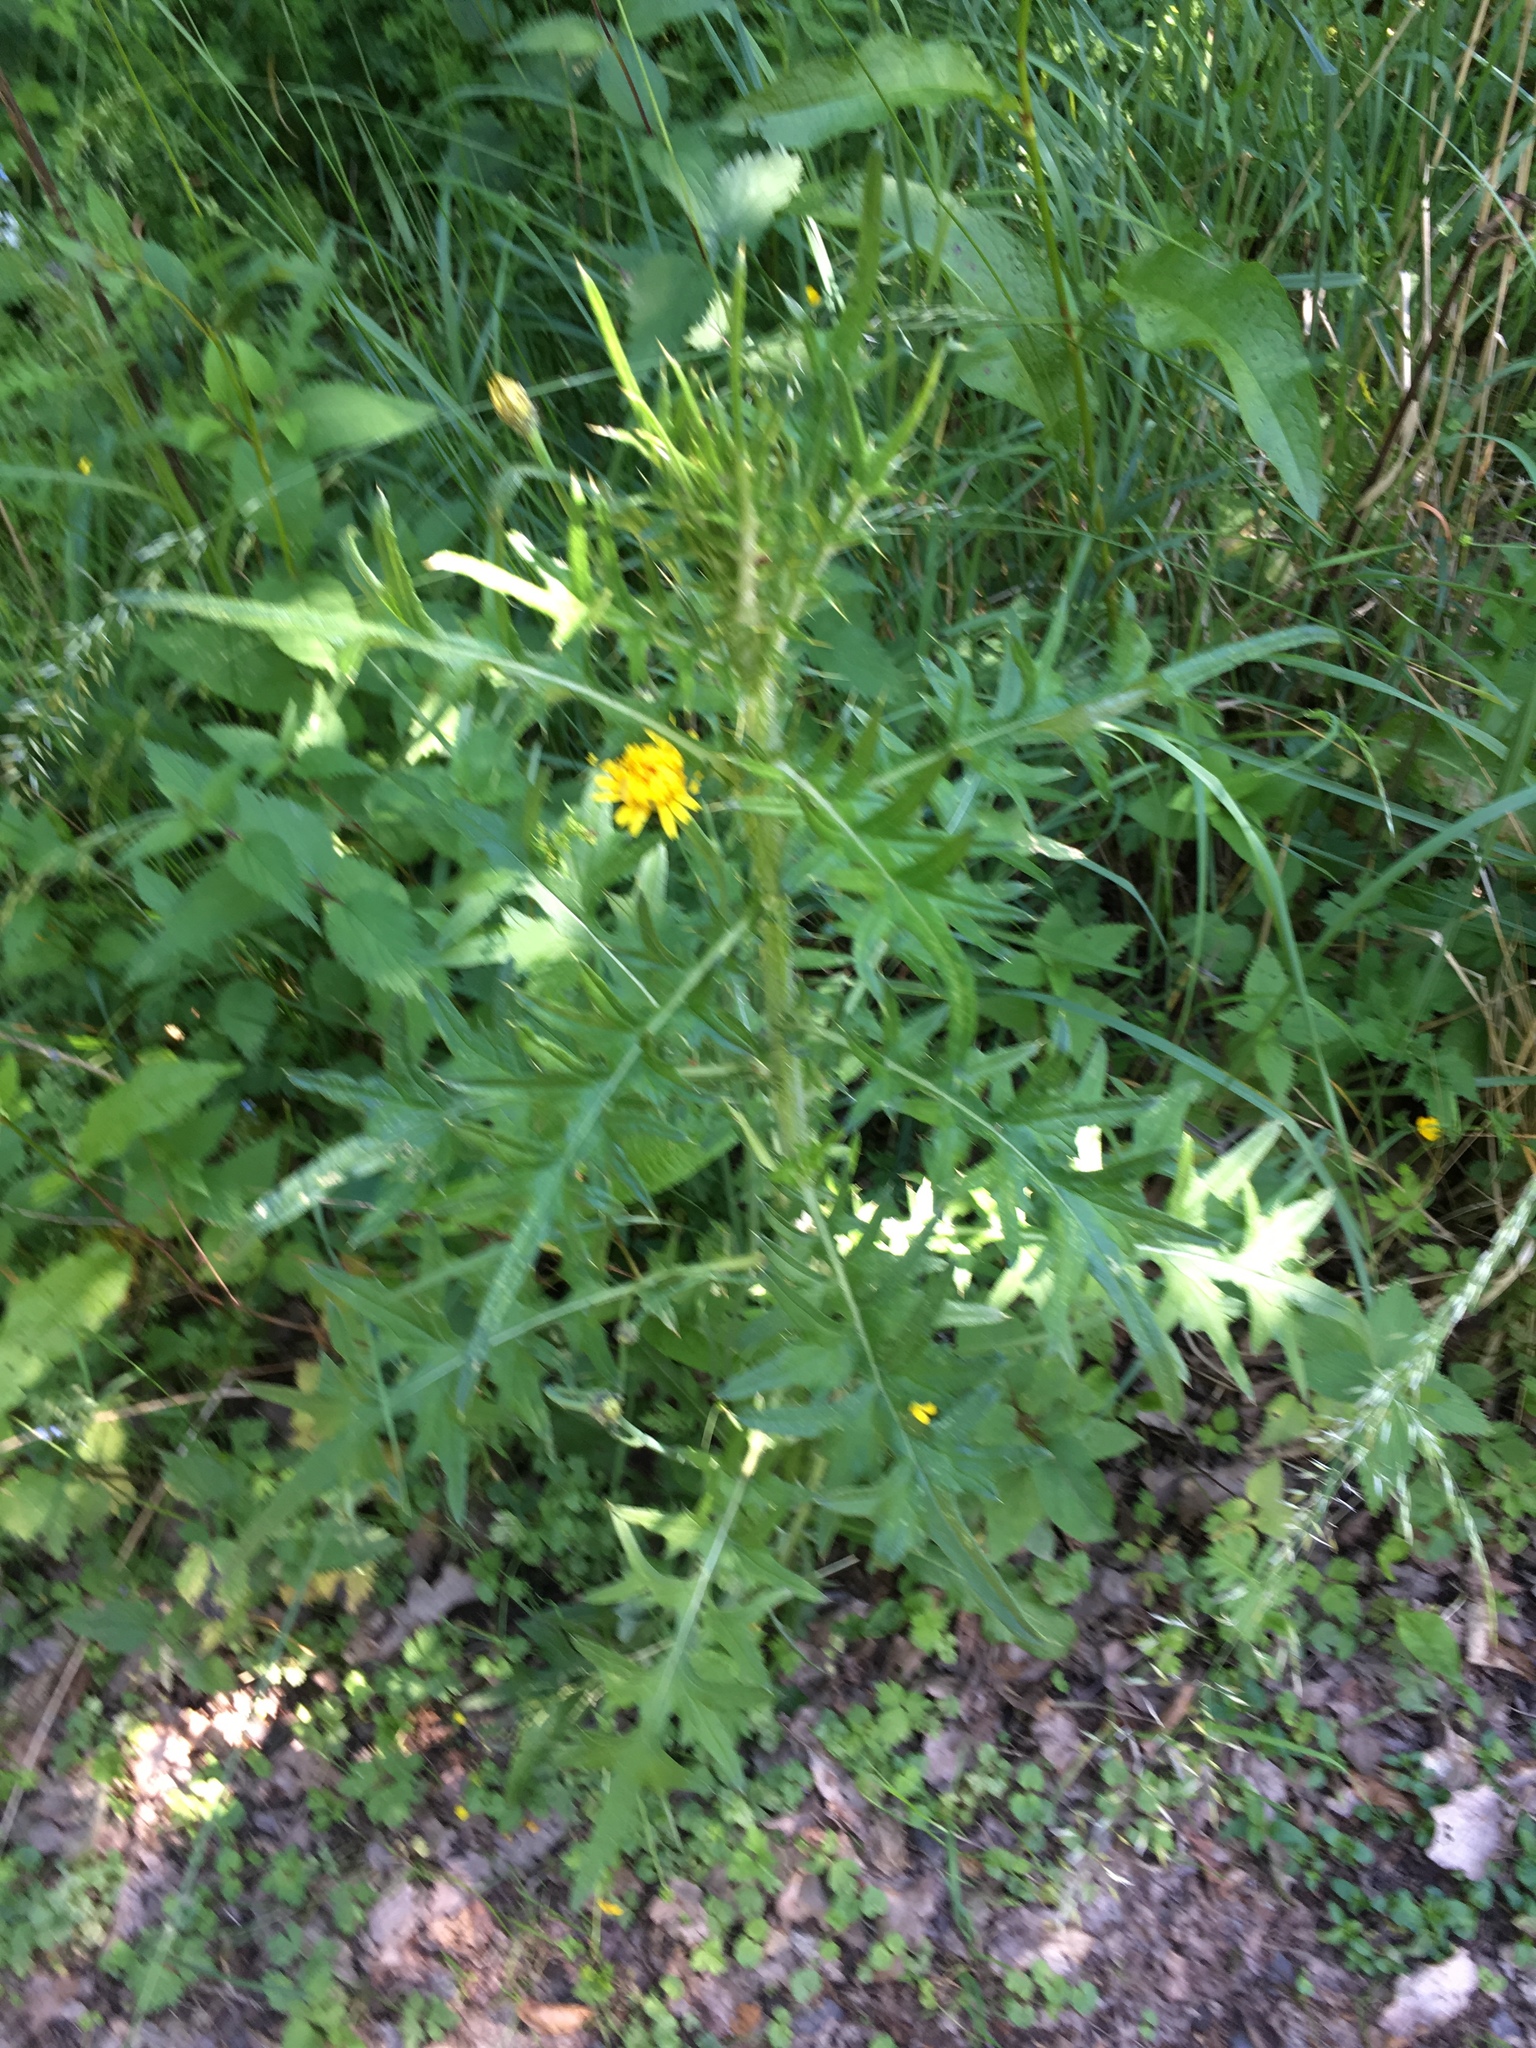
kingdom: Plantae
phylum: Tracheophyta
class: Magnoliopsida
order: Asterales
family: Asteraceae
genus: Cirsium
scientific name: Cirsium vulgare
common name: Bull thistle
